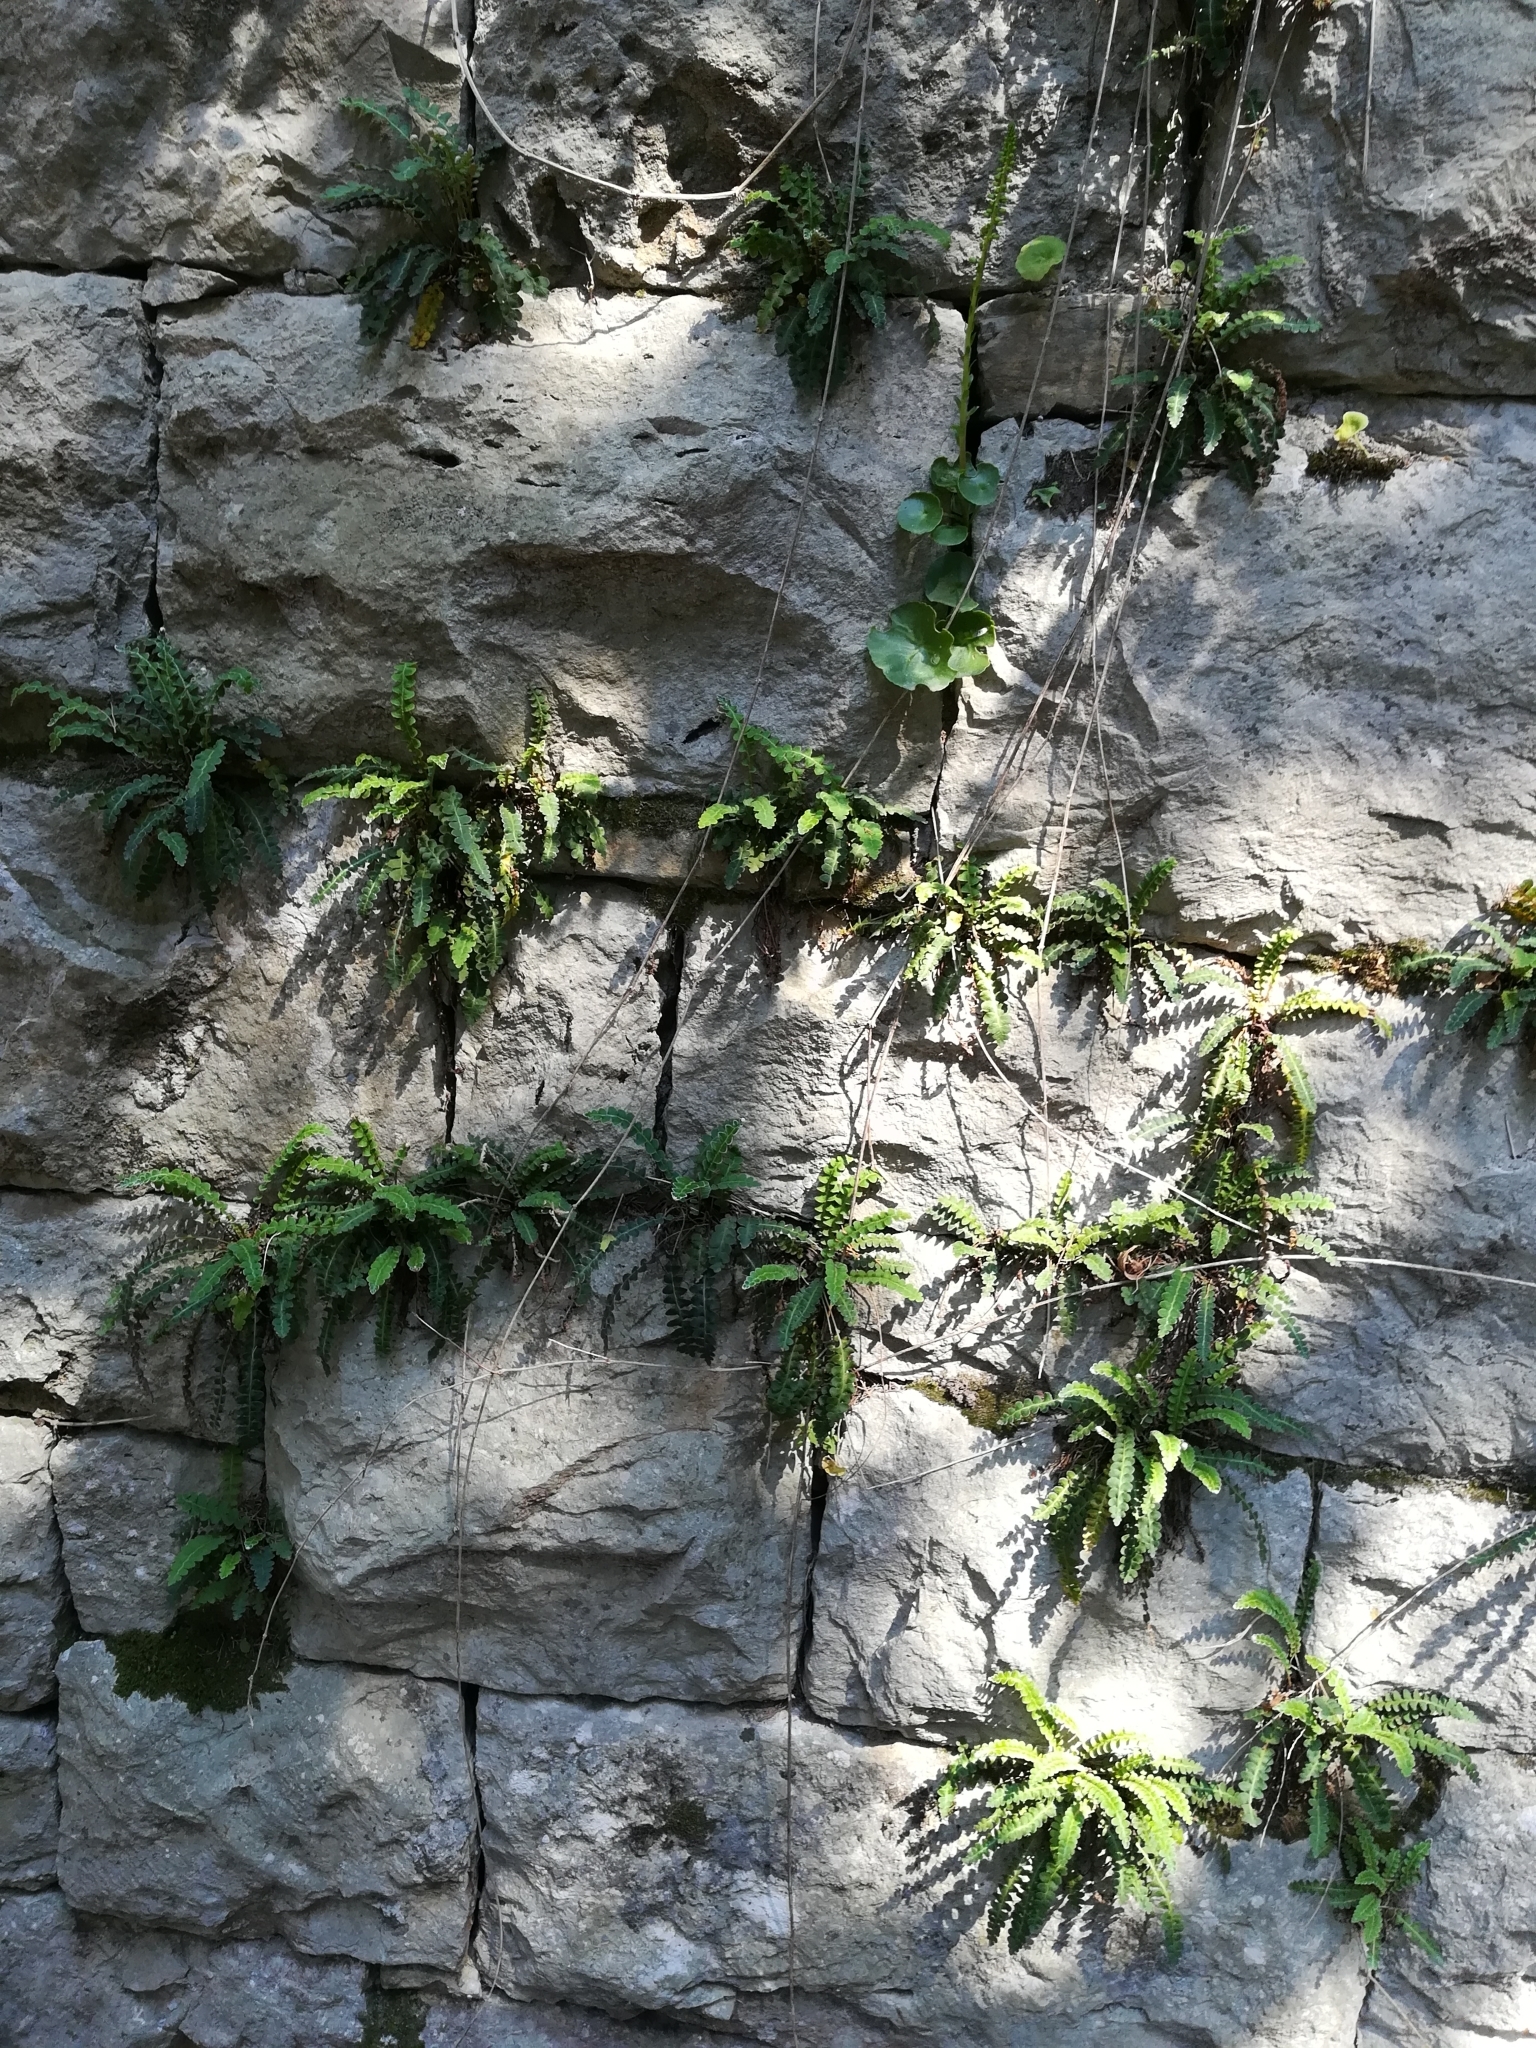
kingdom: Plantae
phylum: Tracheophyta
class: Polypodiopsida
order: Polypodiales
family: Aspleniaceae
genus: Asplenium
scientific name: Asplenium ceterach
